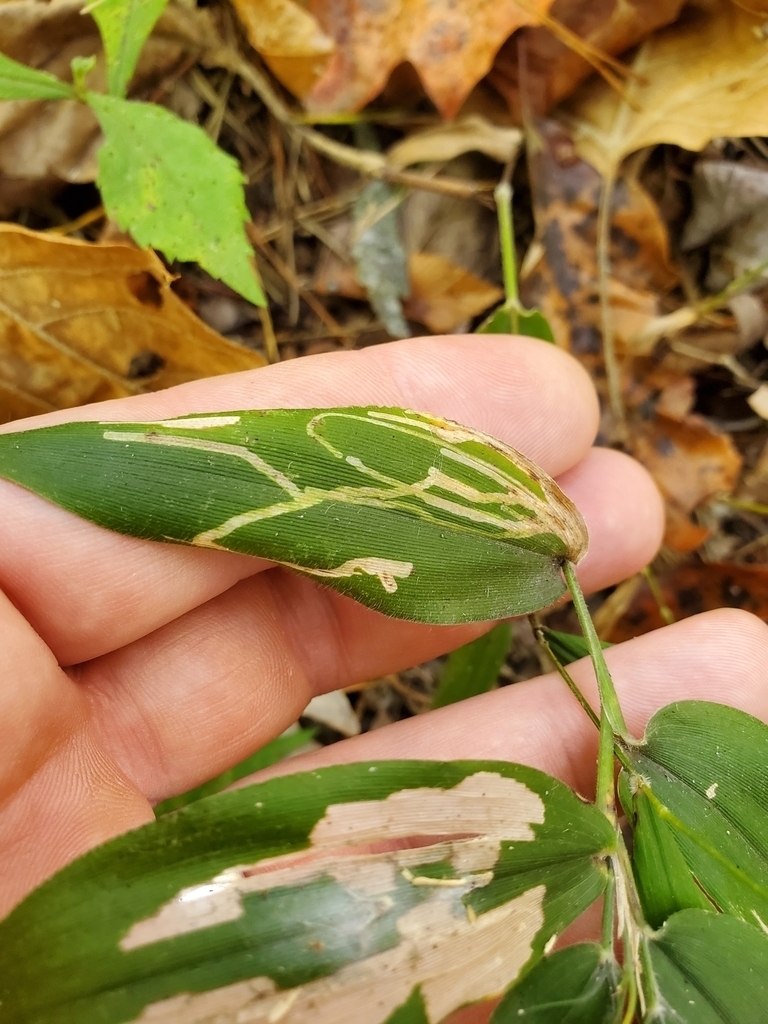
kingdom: Animalia
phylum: Arthropoda
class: Insecta
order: Lepidoptera
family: Epimarptidae
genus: Idioglossa
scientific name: Idioglossa miraculosa
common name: Miraculous idiogloss moth
